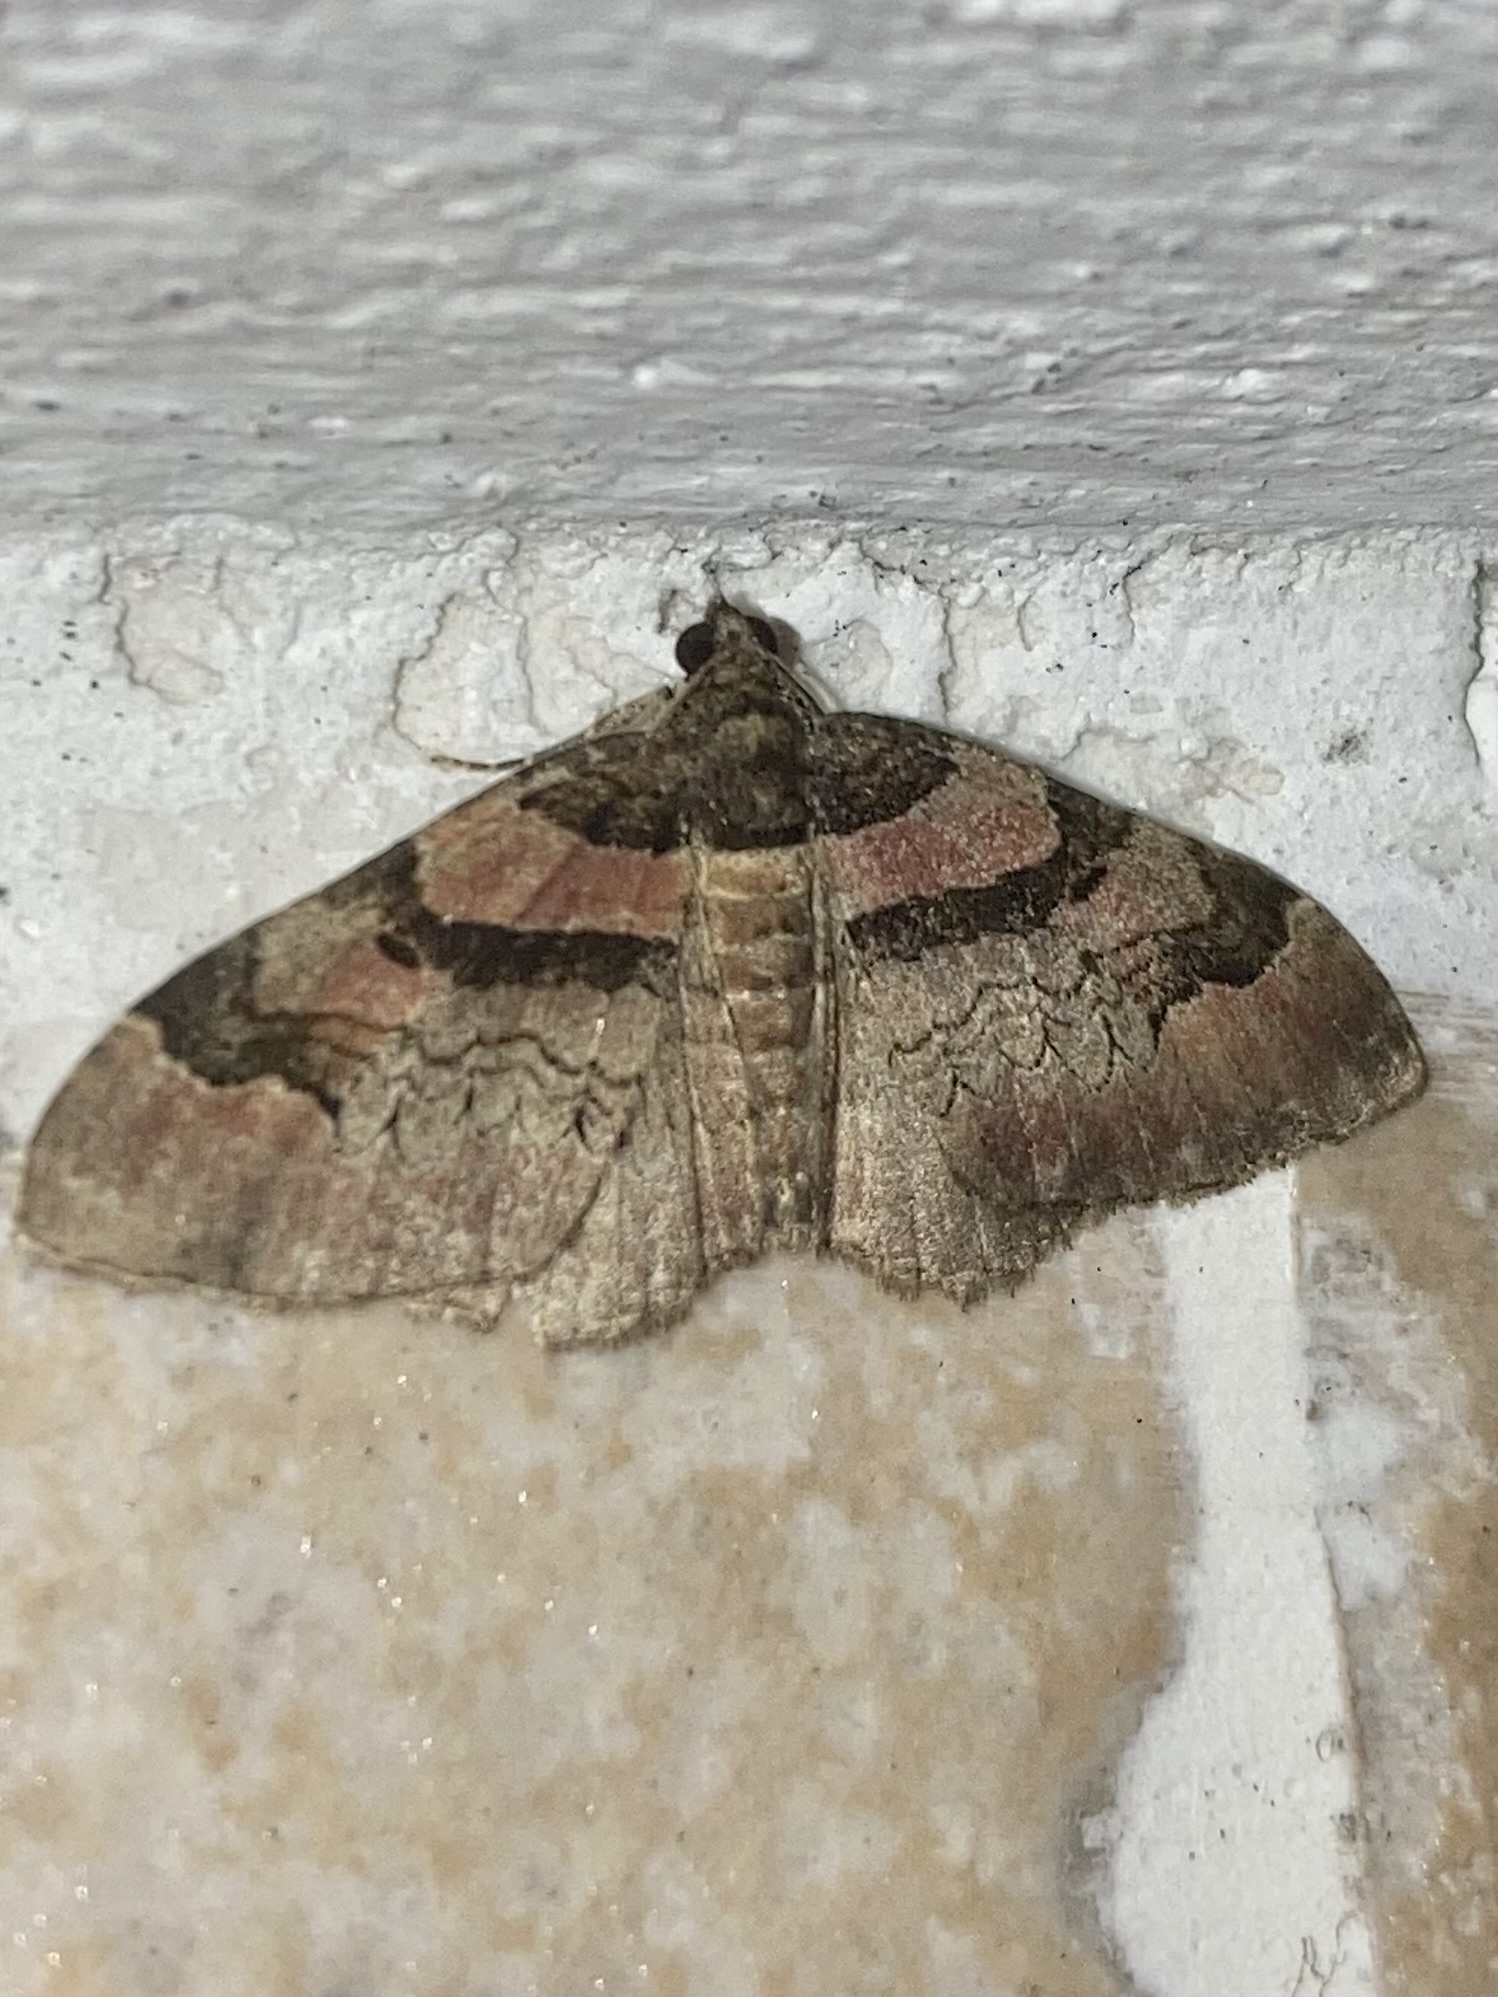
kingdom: Animalia
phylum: Arthropoda
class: Insecta
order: Lepidoptera
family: Geometridae
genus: Catarhoe
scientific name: Catarhoe rubidata
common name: Ruddy carpet
